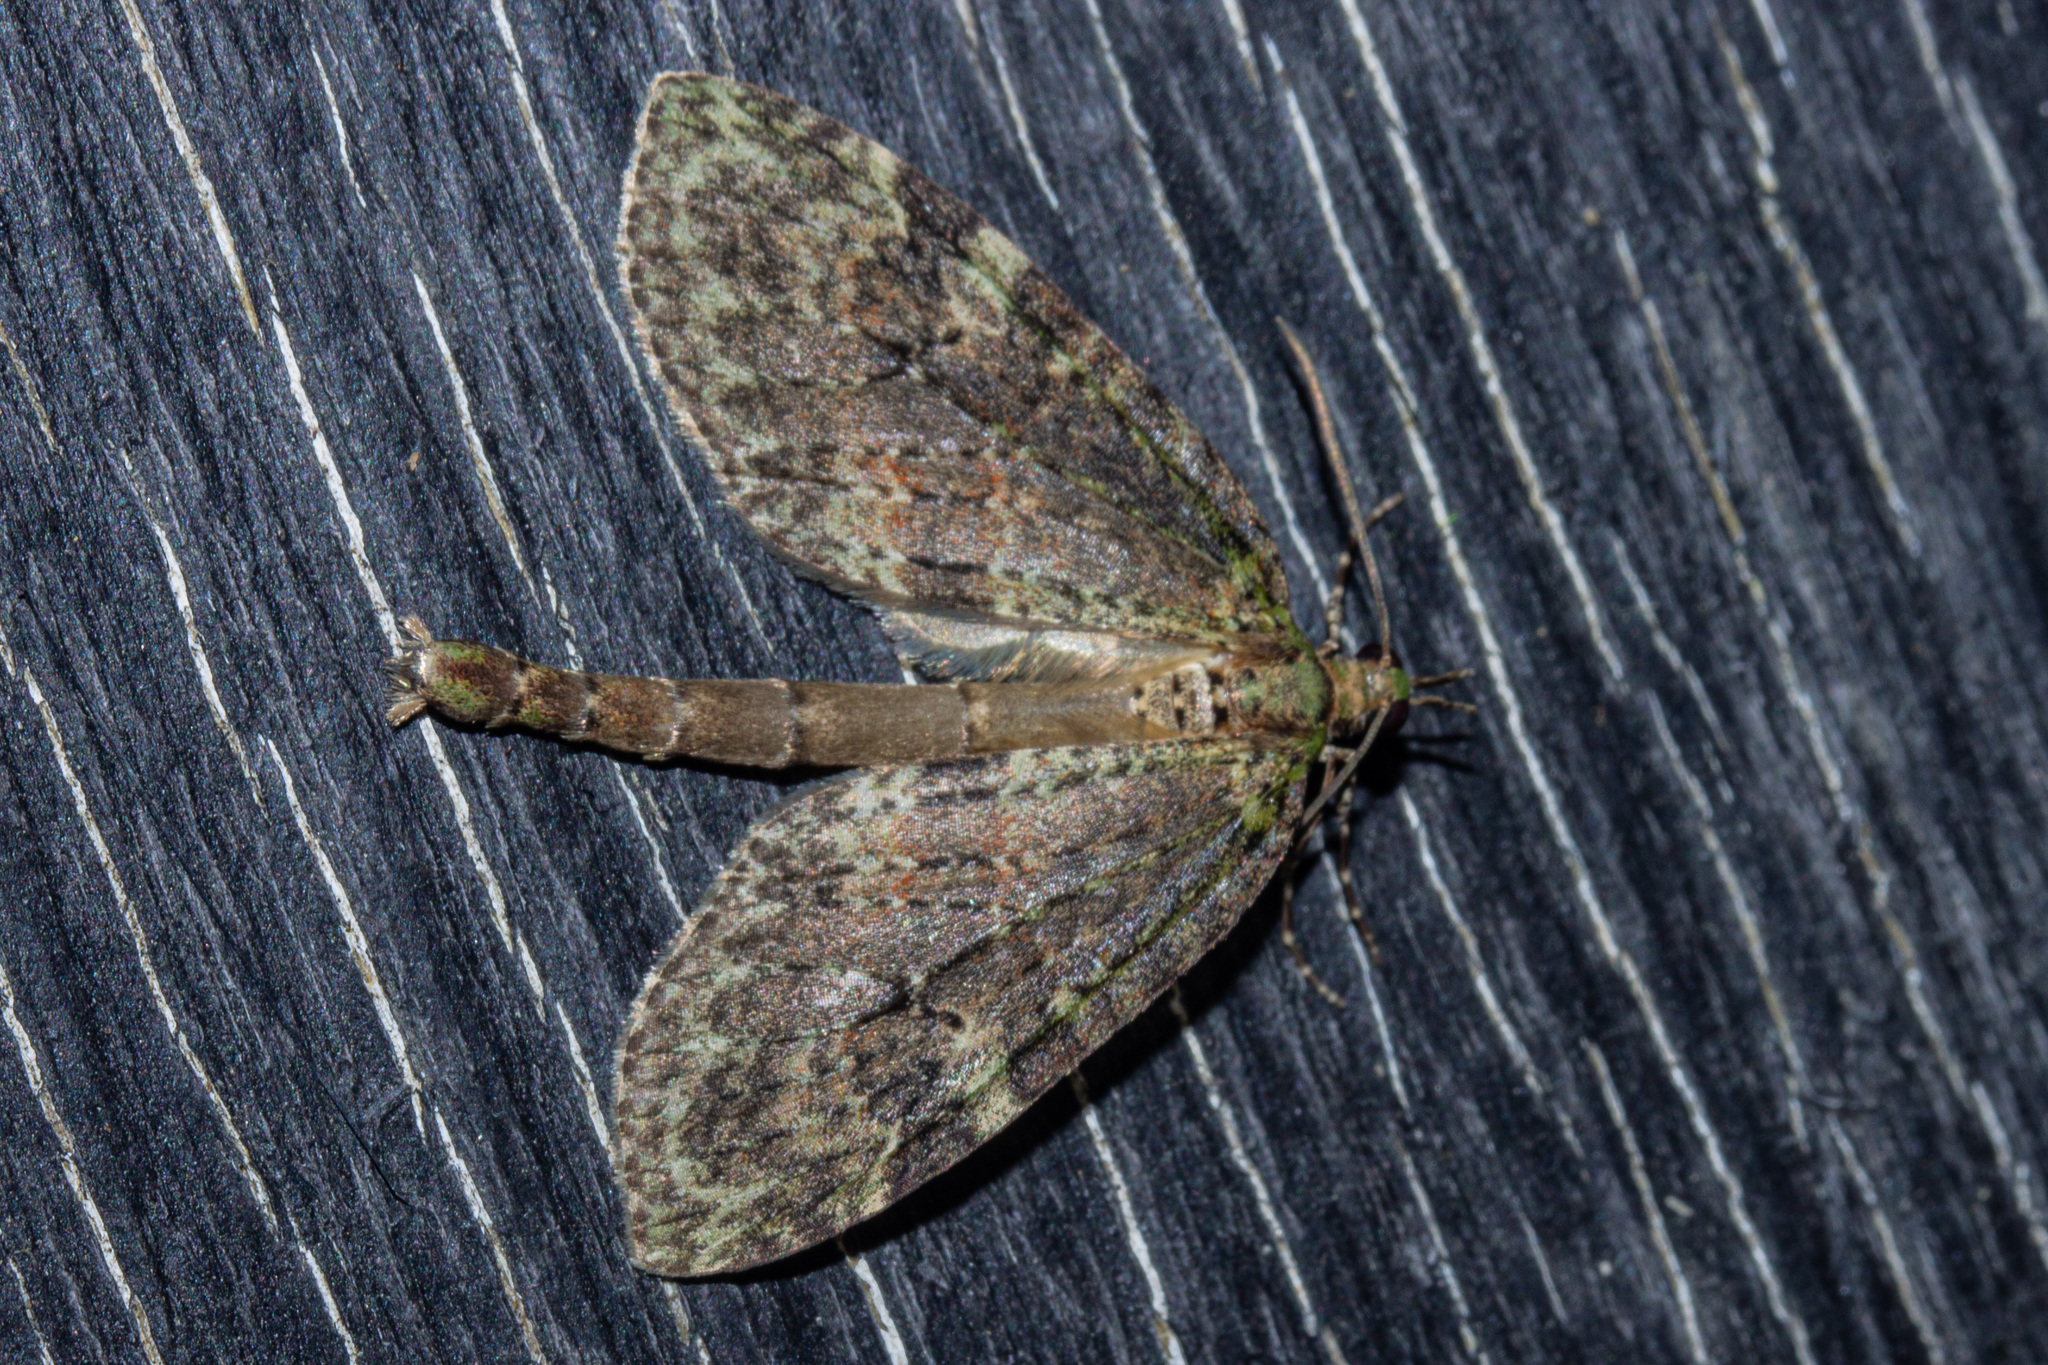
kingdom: Animalia
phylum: Arthropoda
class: Insecta
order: Lepidoptera
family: Geometridae
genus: Tatosoma
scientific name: Tatosoma transitaria
